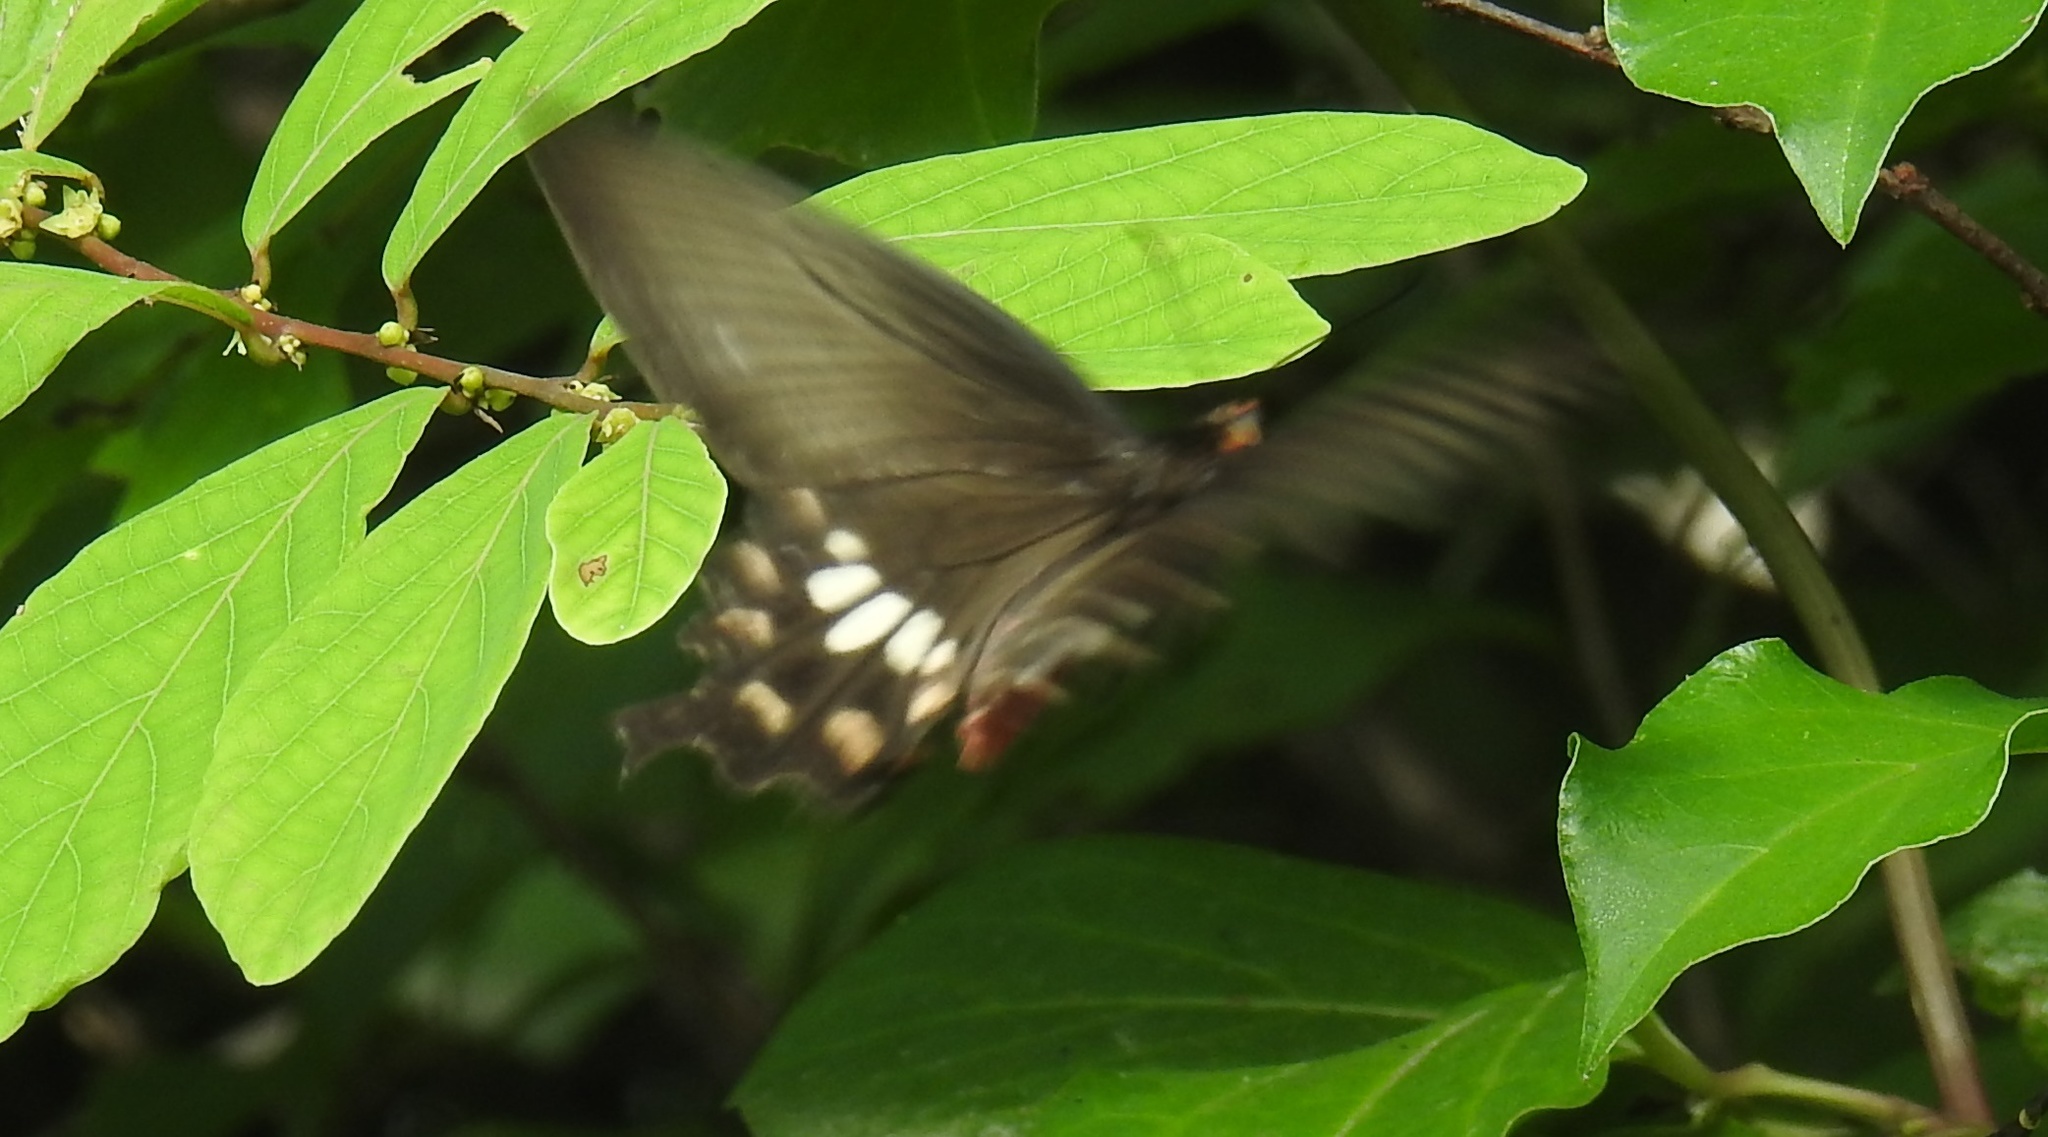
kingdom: Animalia
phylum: Arthropoda
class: Insecta
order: Lepidoptera
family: Papilionidae
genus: Pachliopta
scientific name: Pachliopta aristolochiae
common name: Common rose
